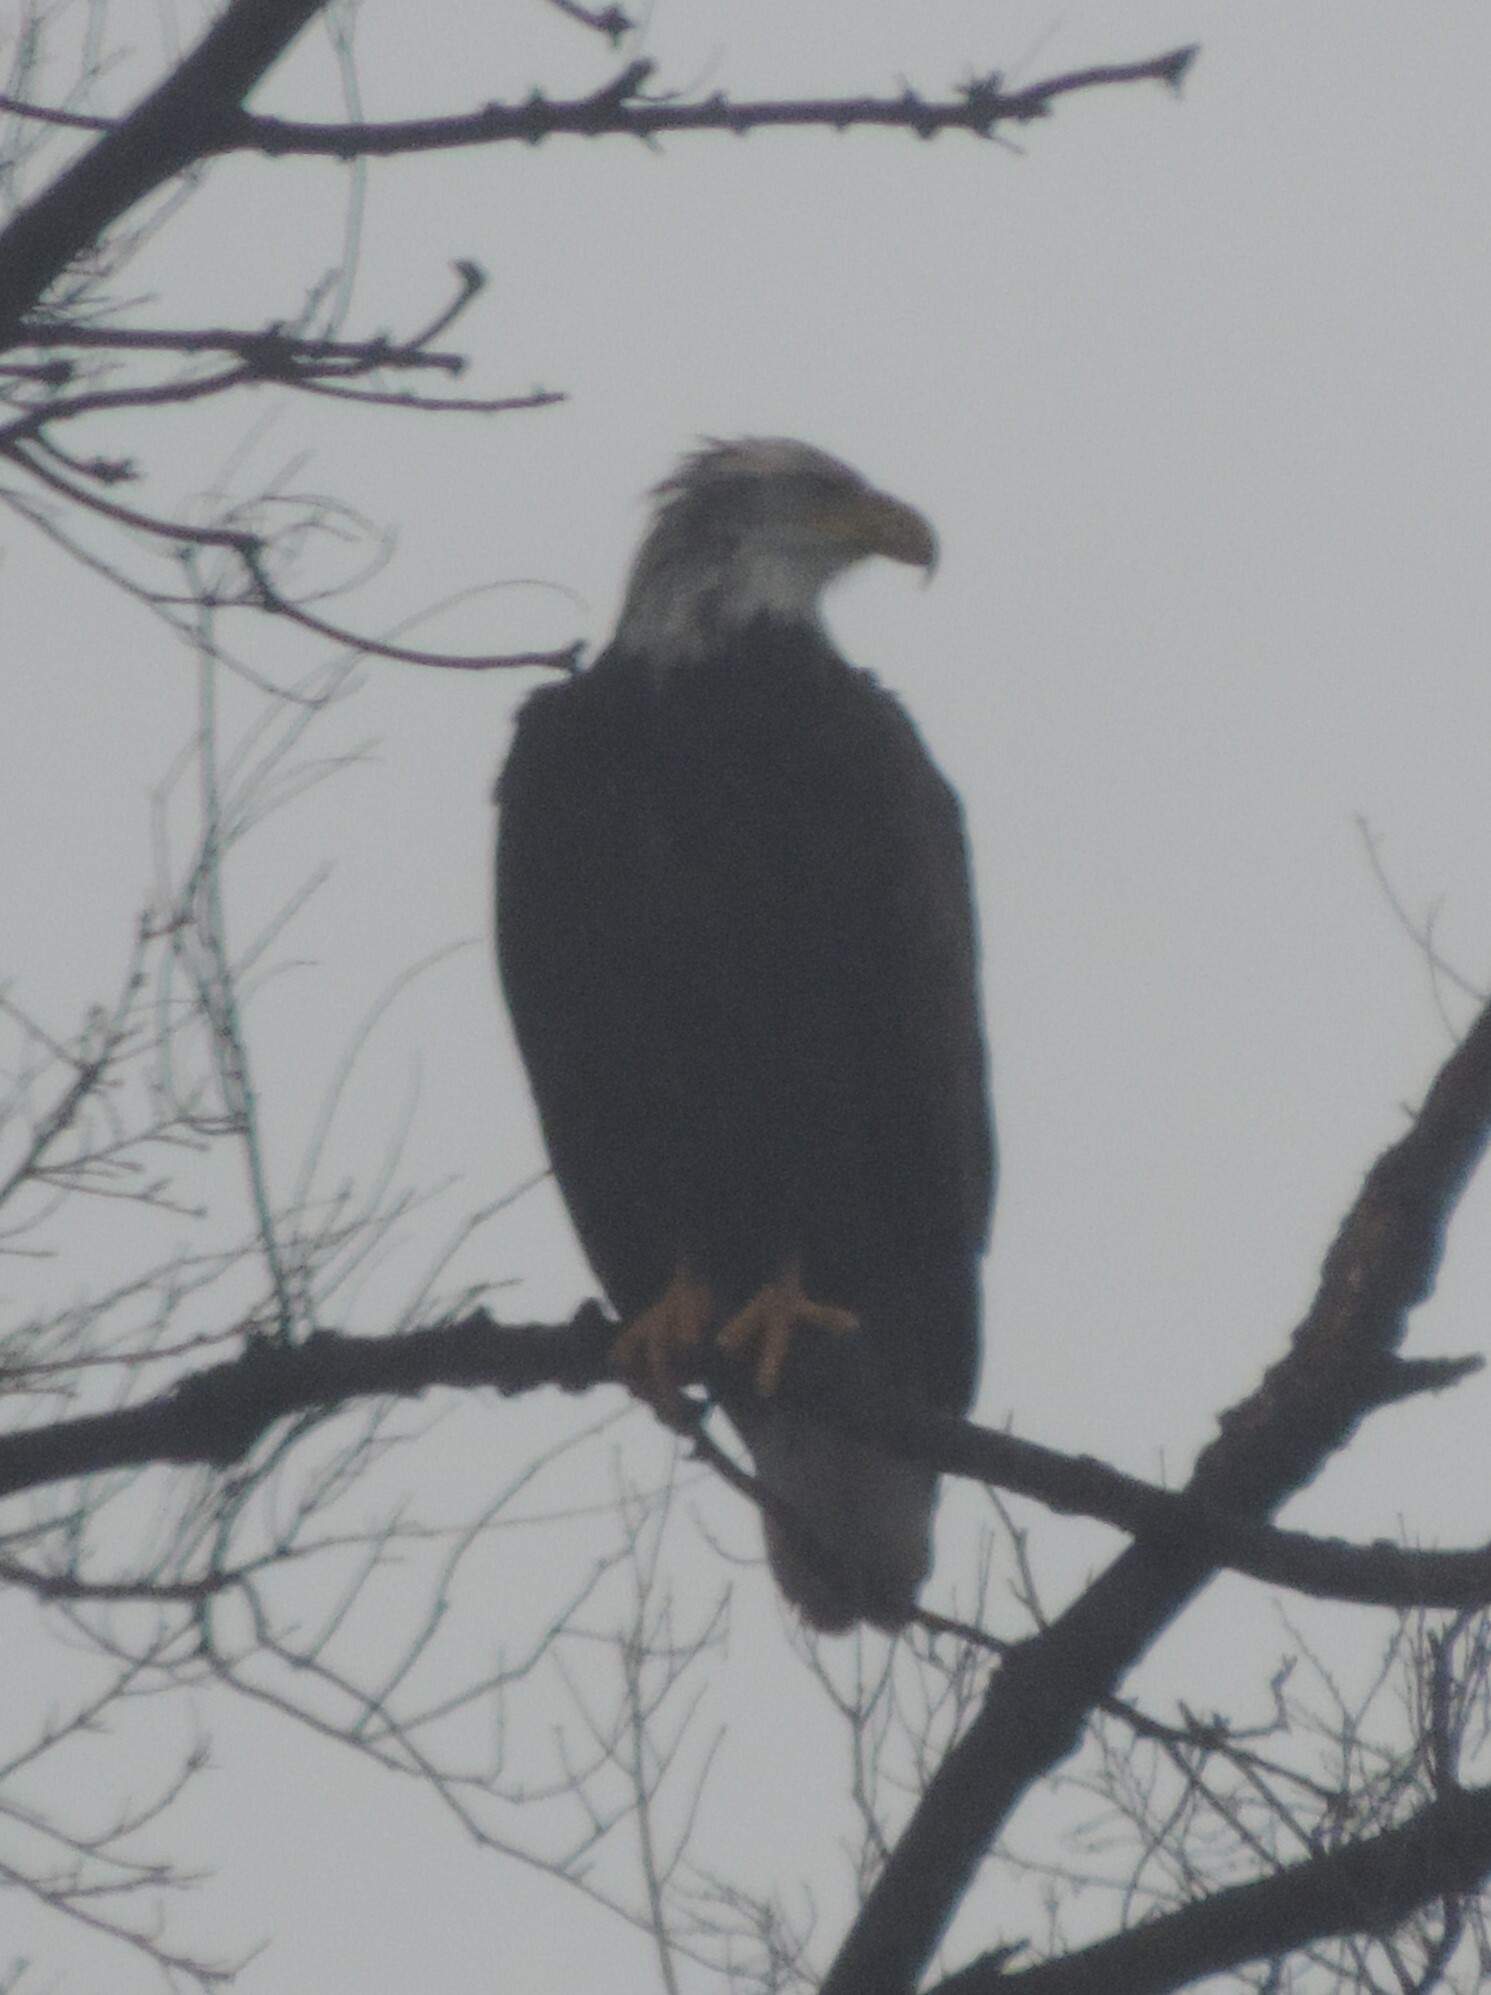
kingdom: Animalia
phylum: Chordata
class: Aves
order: Accipitriformes
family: Accipitridae
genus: Haliaeetus
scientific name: Haliaeetus leucocephalus
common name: Bald eagle
